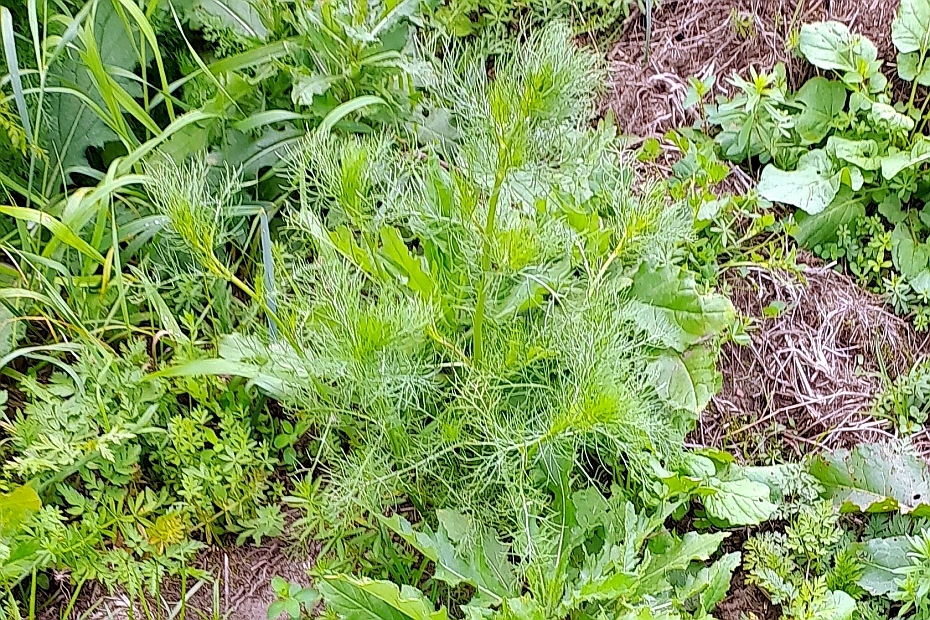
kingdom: Plantae
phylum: Tracheophyta
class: Magnoliopsida
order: Asterales
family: Asteraceae
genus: Tripleurospermum
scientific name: Tripleurospermum inodorum
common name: Scentless mayweed
